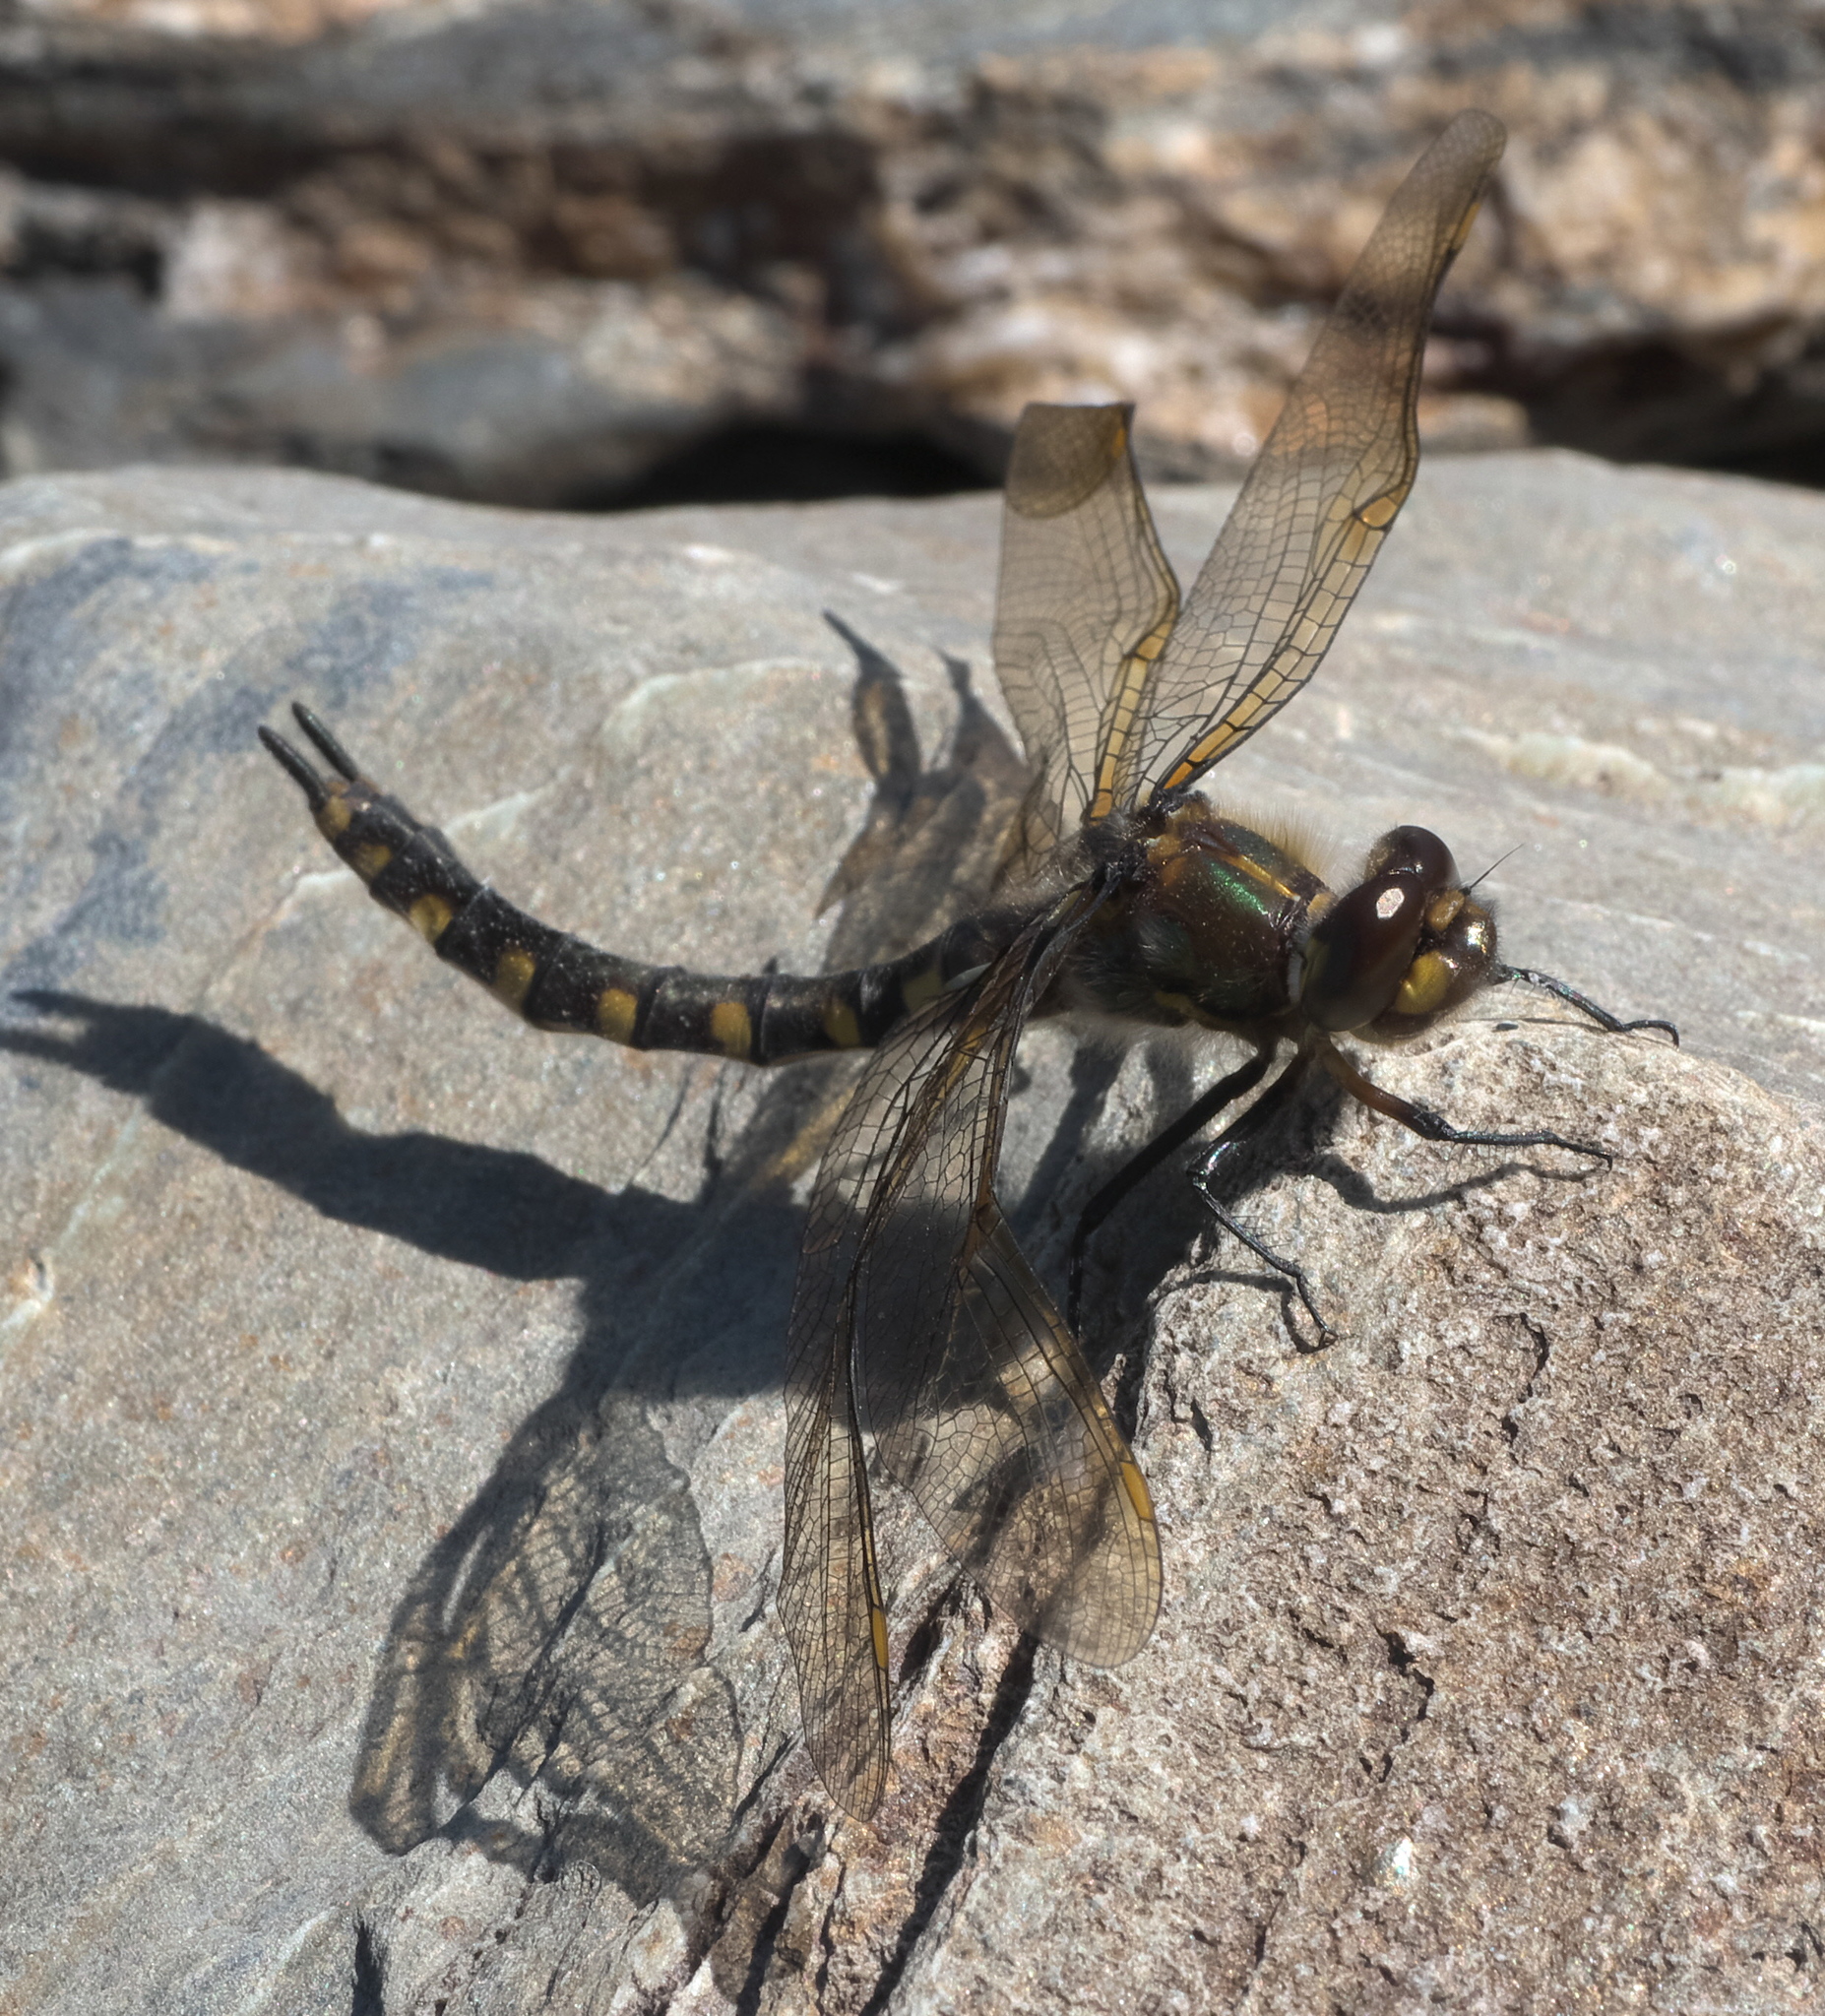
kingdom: Animalia
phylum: Arthropoda
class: Insecta
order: Odonata
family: Corduliidae
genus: Procordulia
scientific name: Procordulia grayi
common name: Yellow spotted dragonfly
